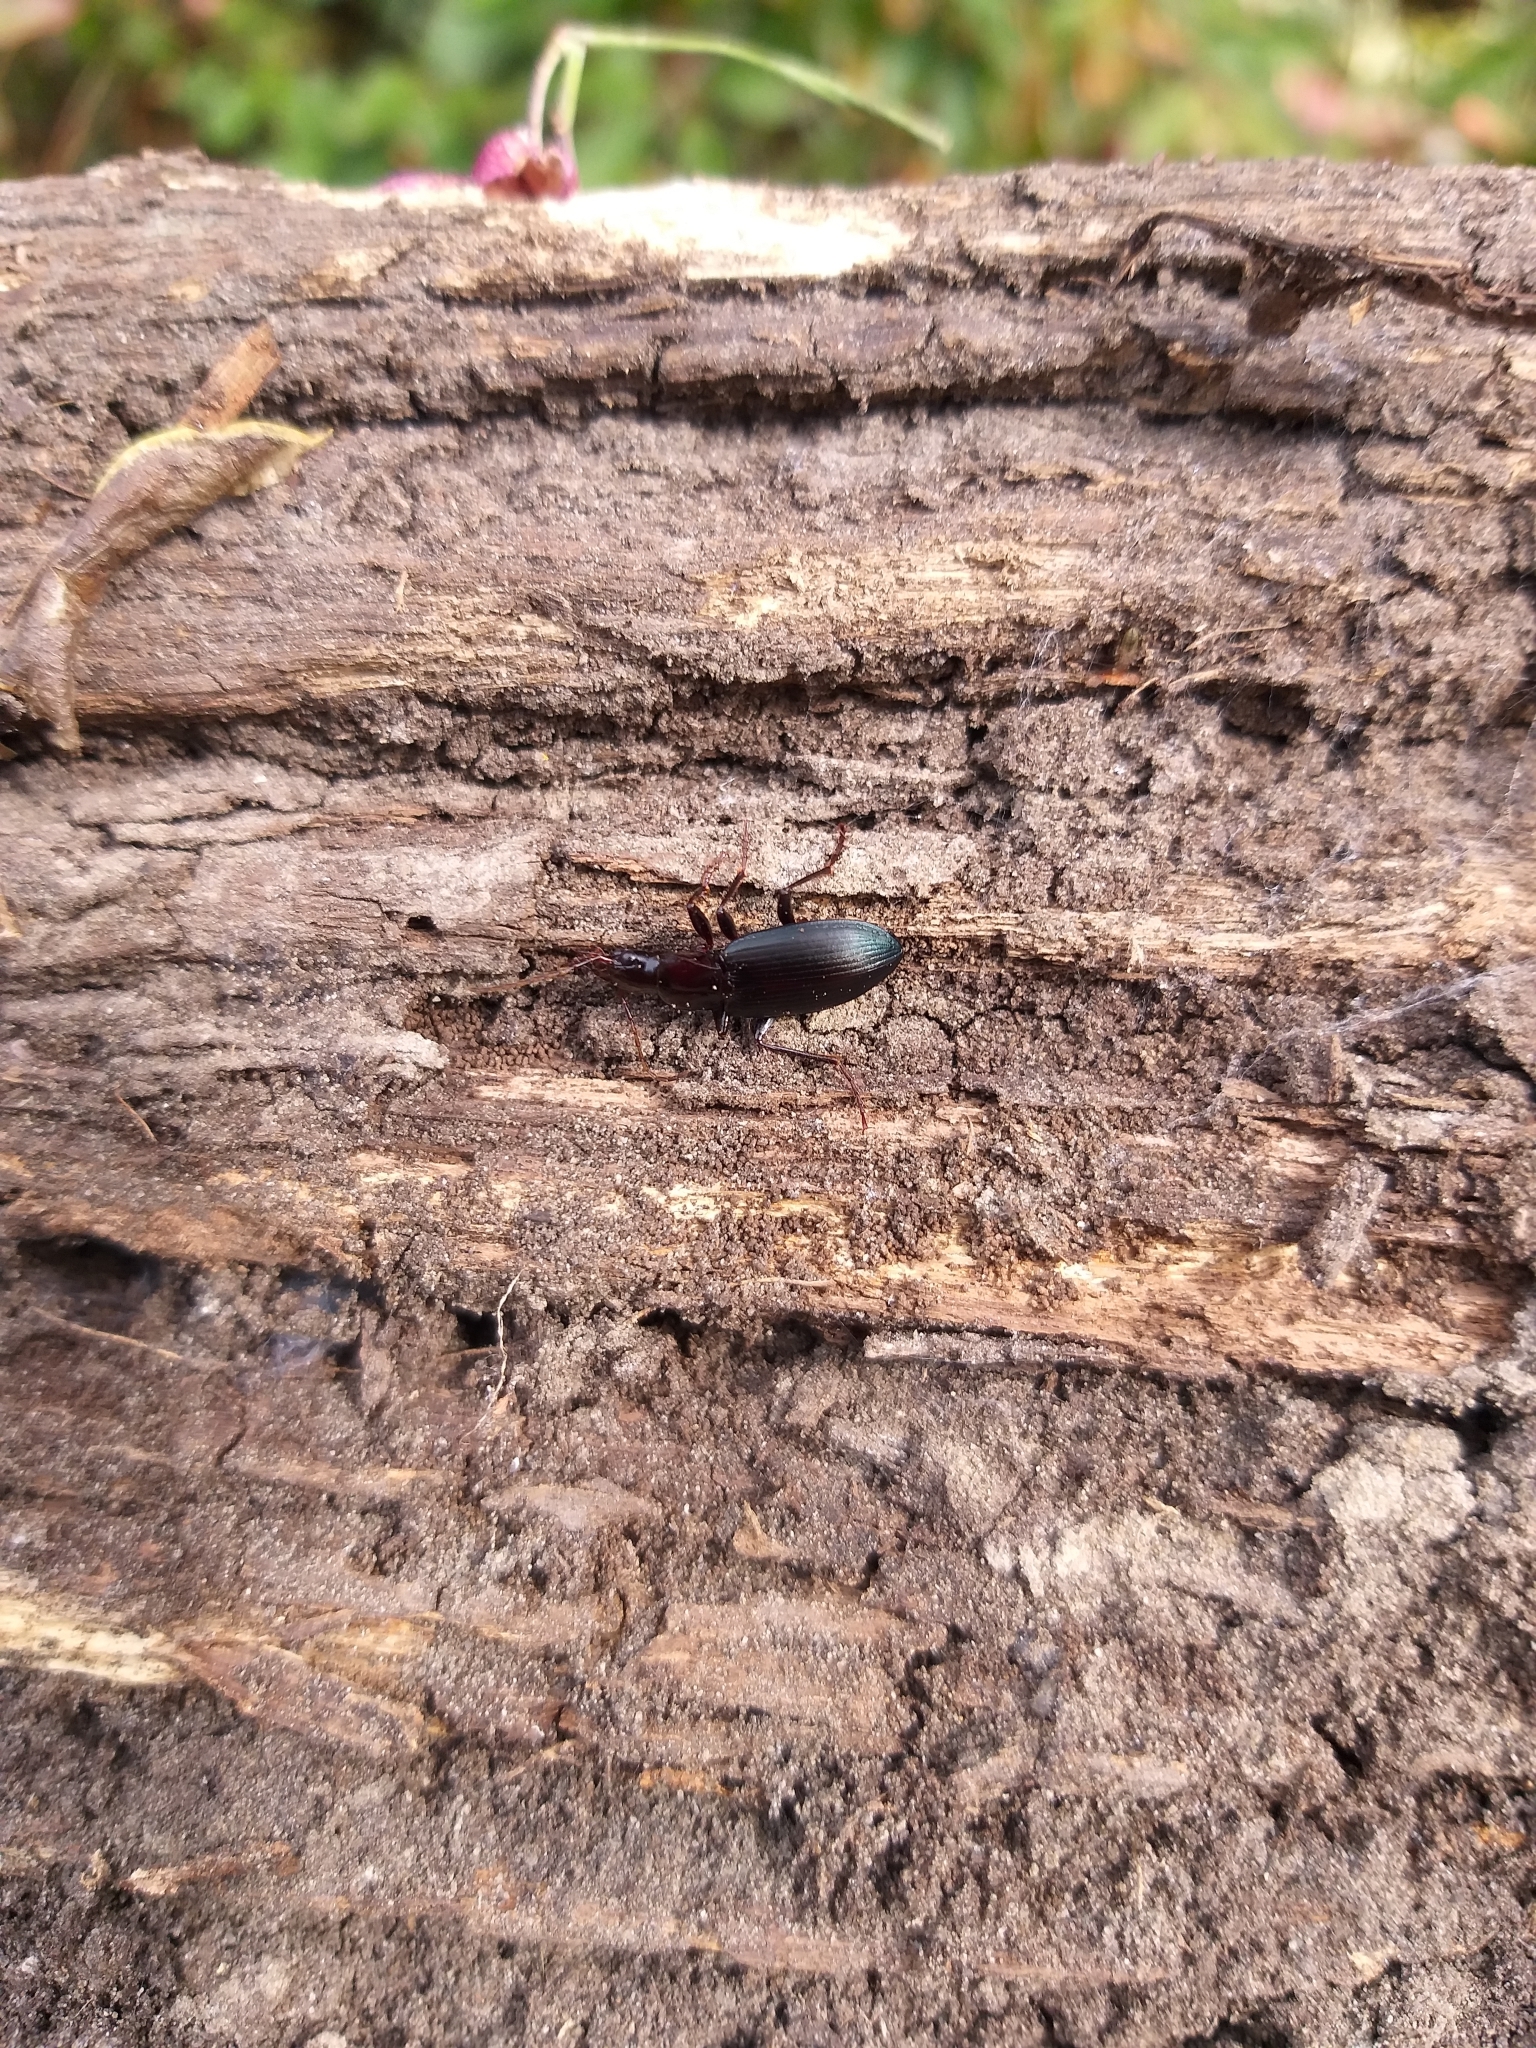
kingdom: Animalia
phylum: Arthropoda
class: Insecta
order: Coleoptera
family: Carabidae
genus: Laemostenus
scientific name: Laemostenus complanatus
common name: Cosmopolitan ground beetle
